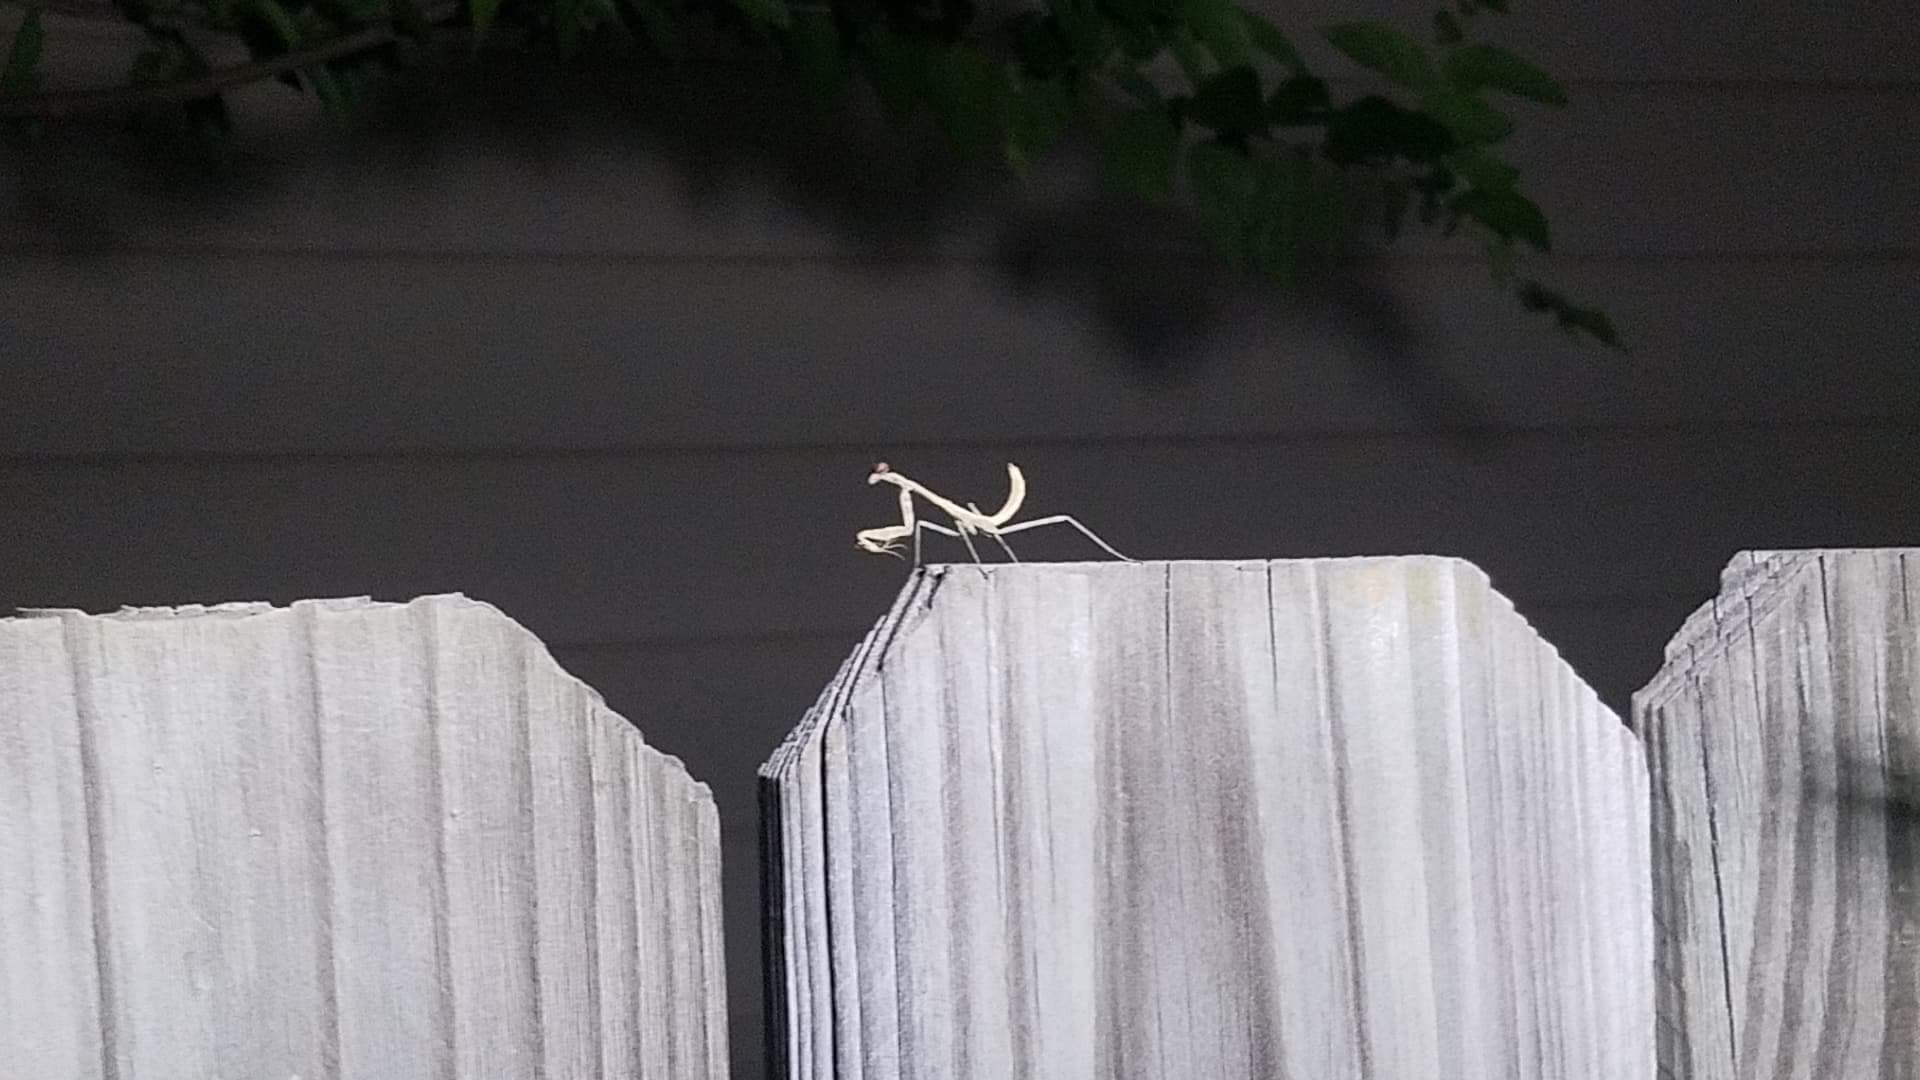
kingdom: Animalia
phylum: Arthropoda
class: Insecta
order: Mantodea
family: Mantidae
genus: Stagmomantis
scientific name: Stagmomantis carolina
